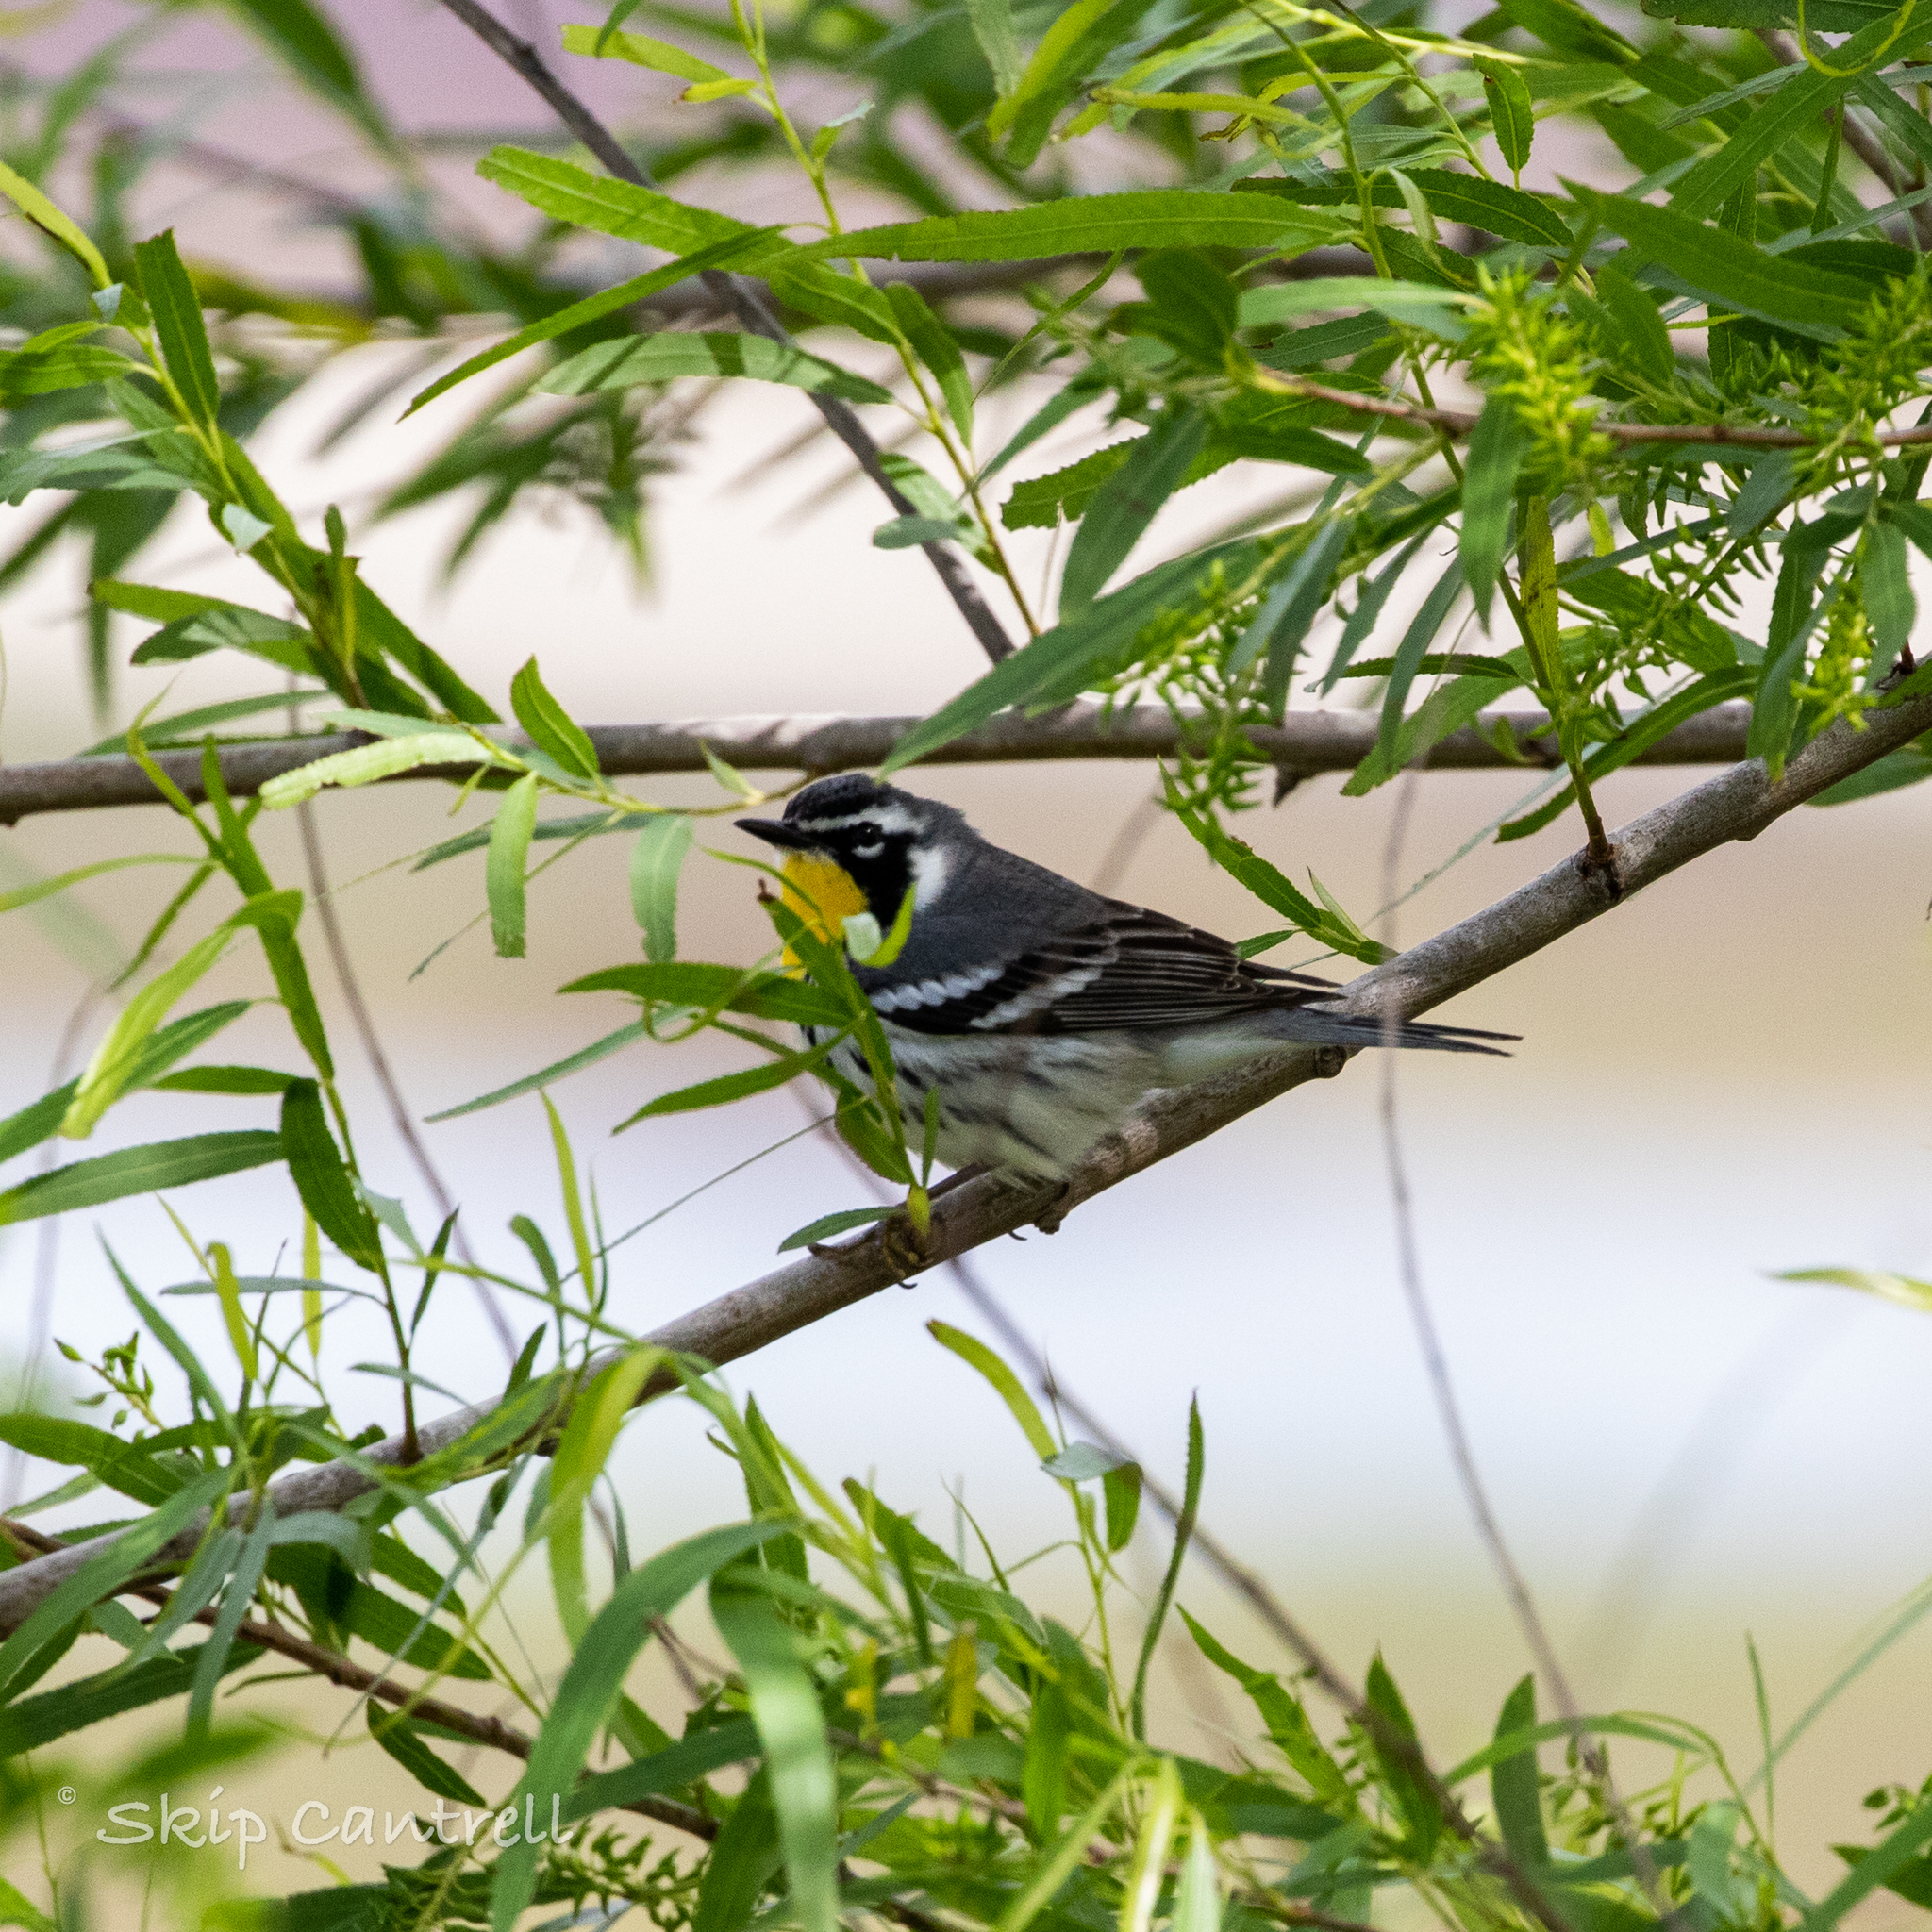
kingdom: Animalia
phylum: Chordata
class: Aves
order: Passeriformes
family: Parulidae
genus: Setophaga
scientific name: Setophaga dominica
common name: Yellow-throated warbler
